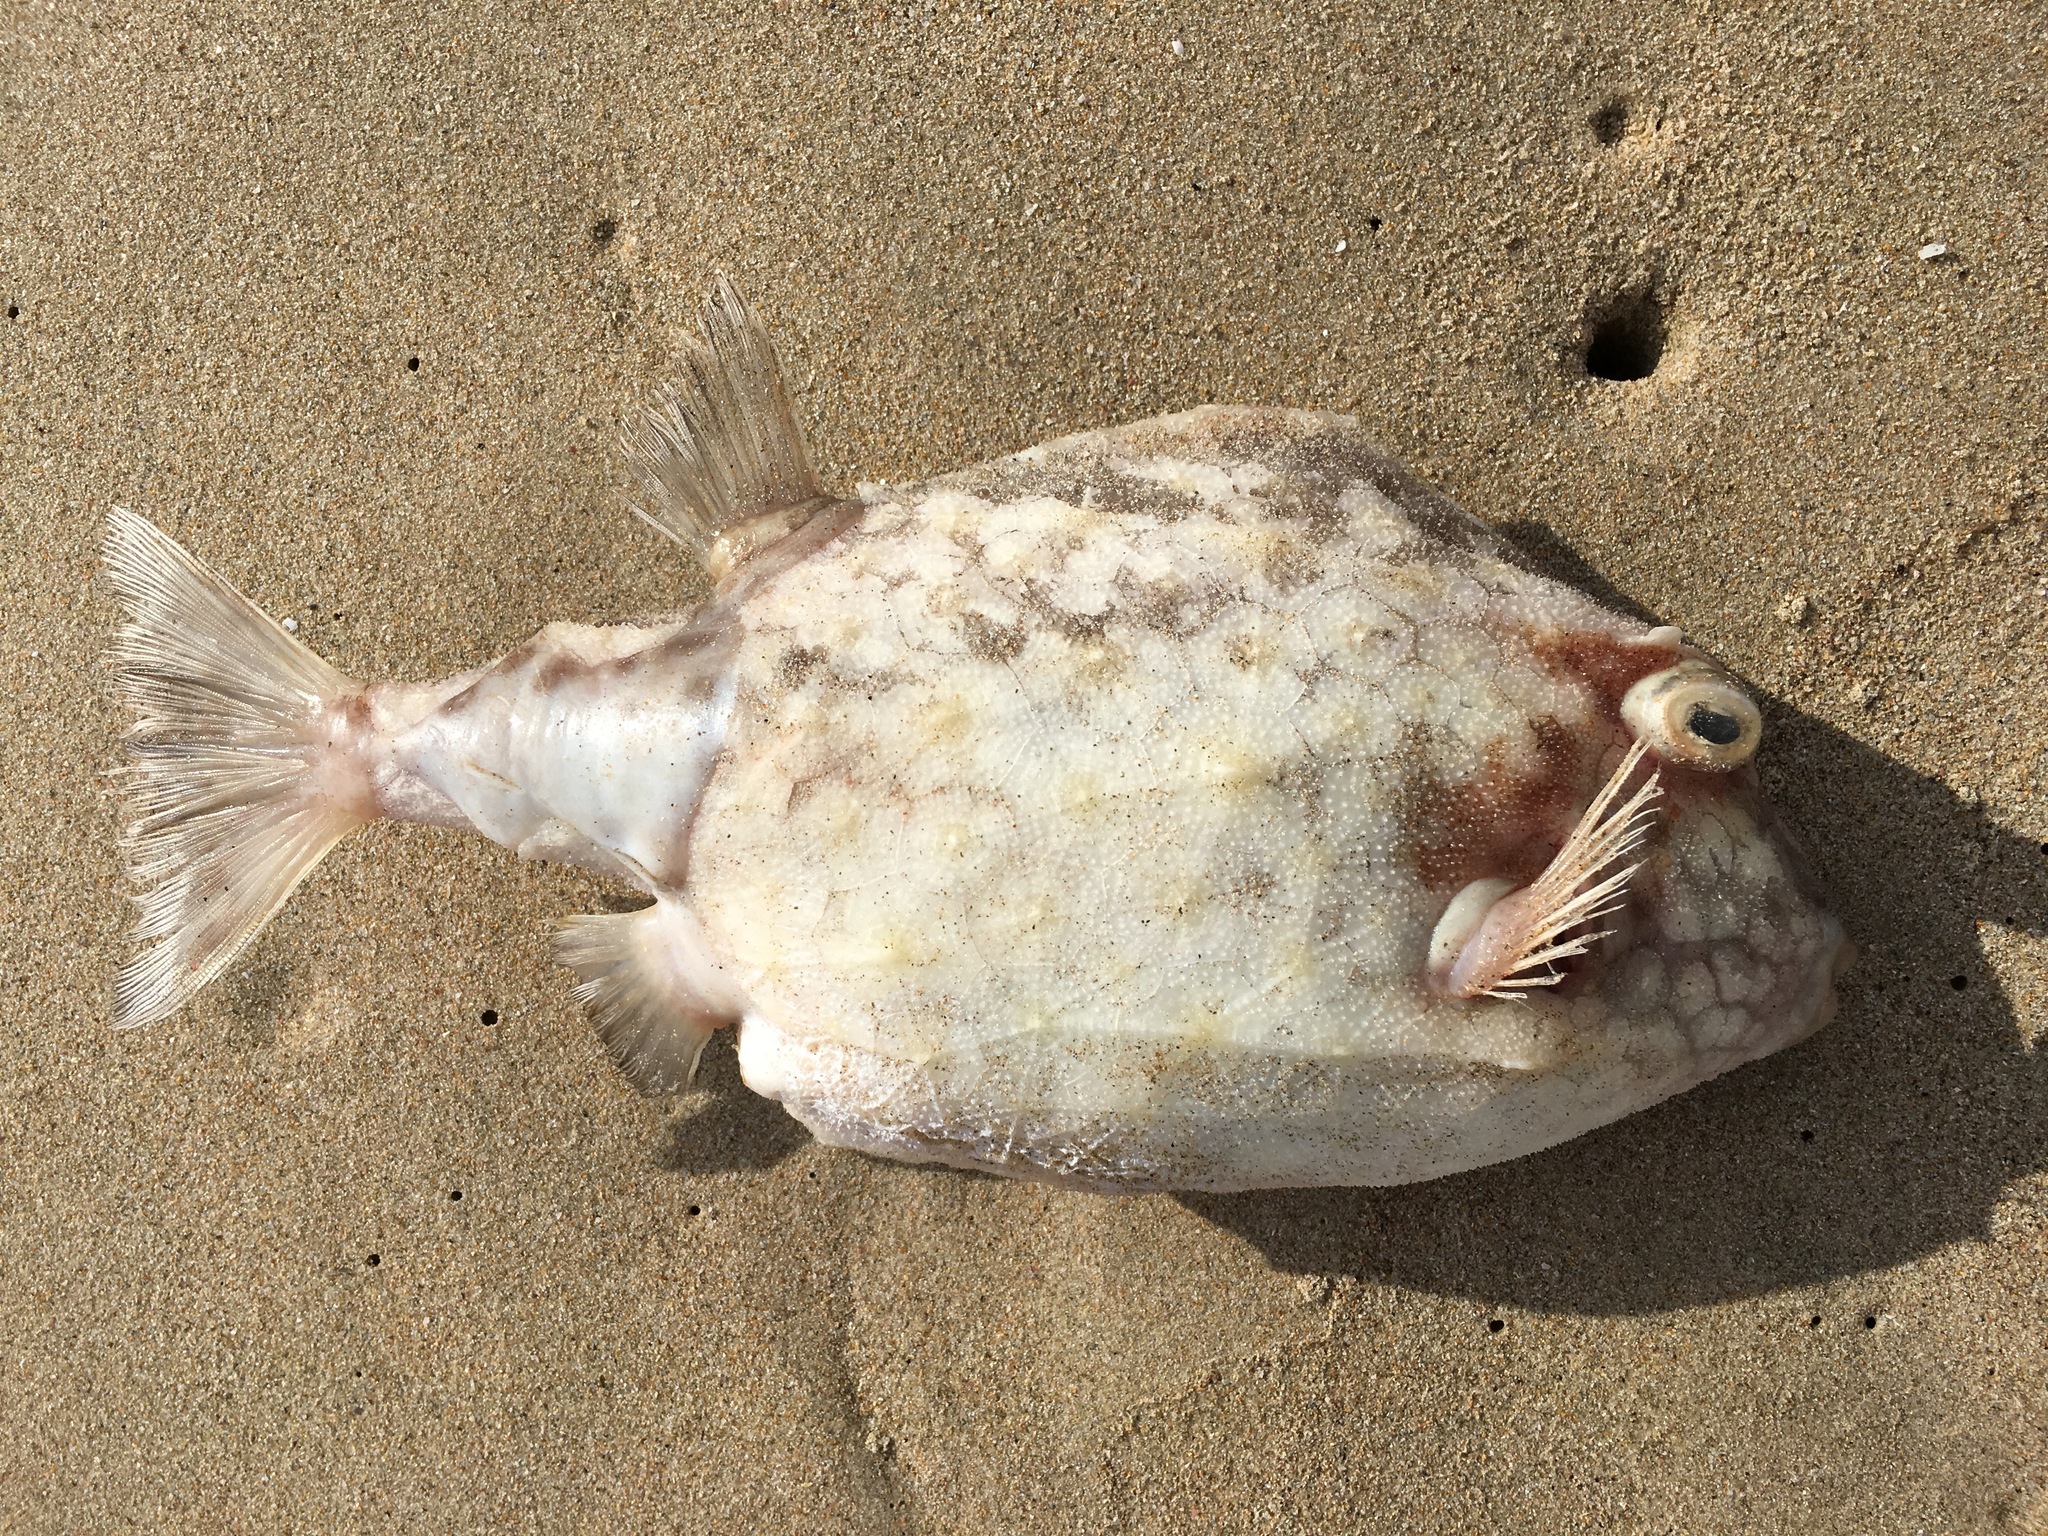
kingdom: Animalia
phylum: Chordata
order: Tetraodontiformes
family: Aracanidae
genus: Anoplocapros
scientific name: Anoplocapros inermis
